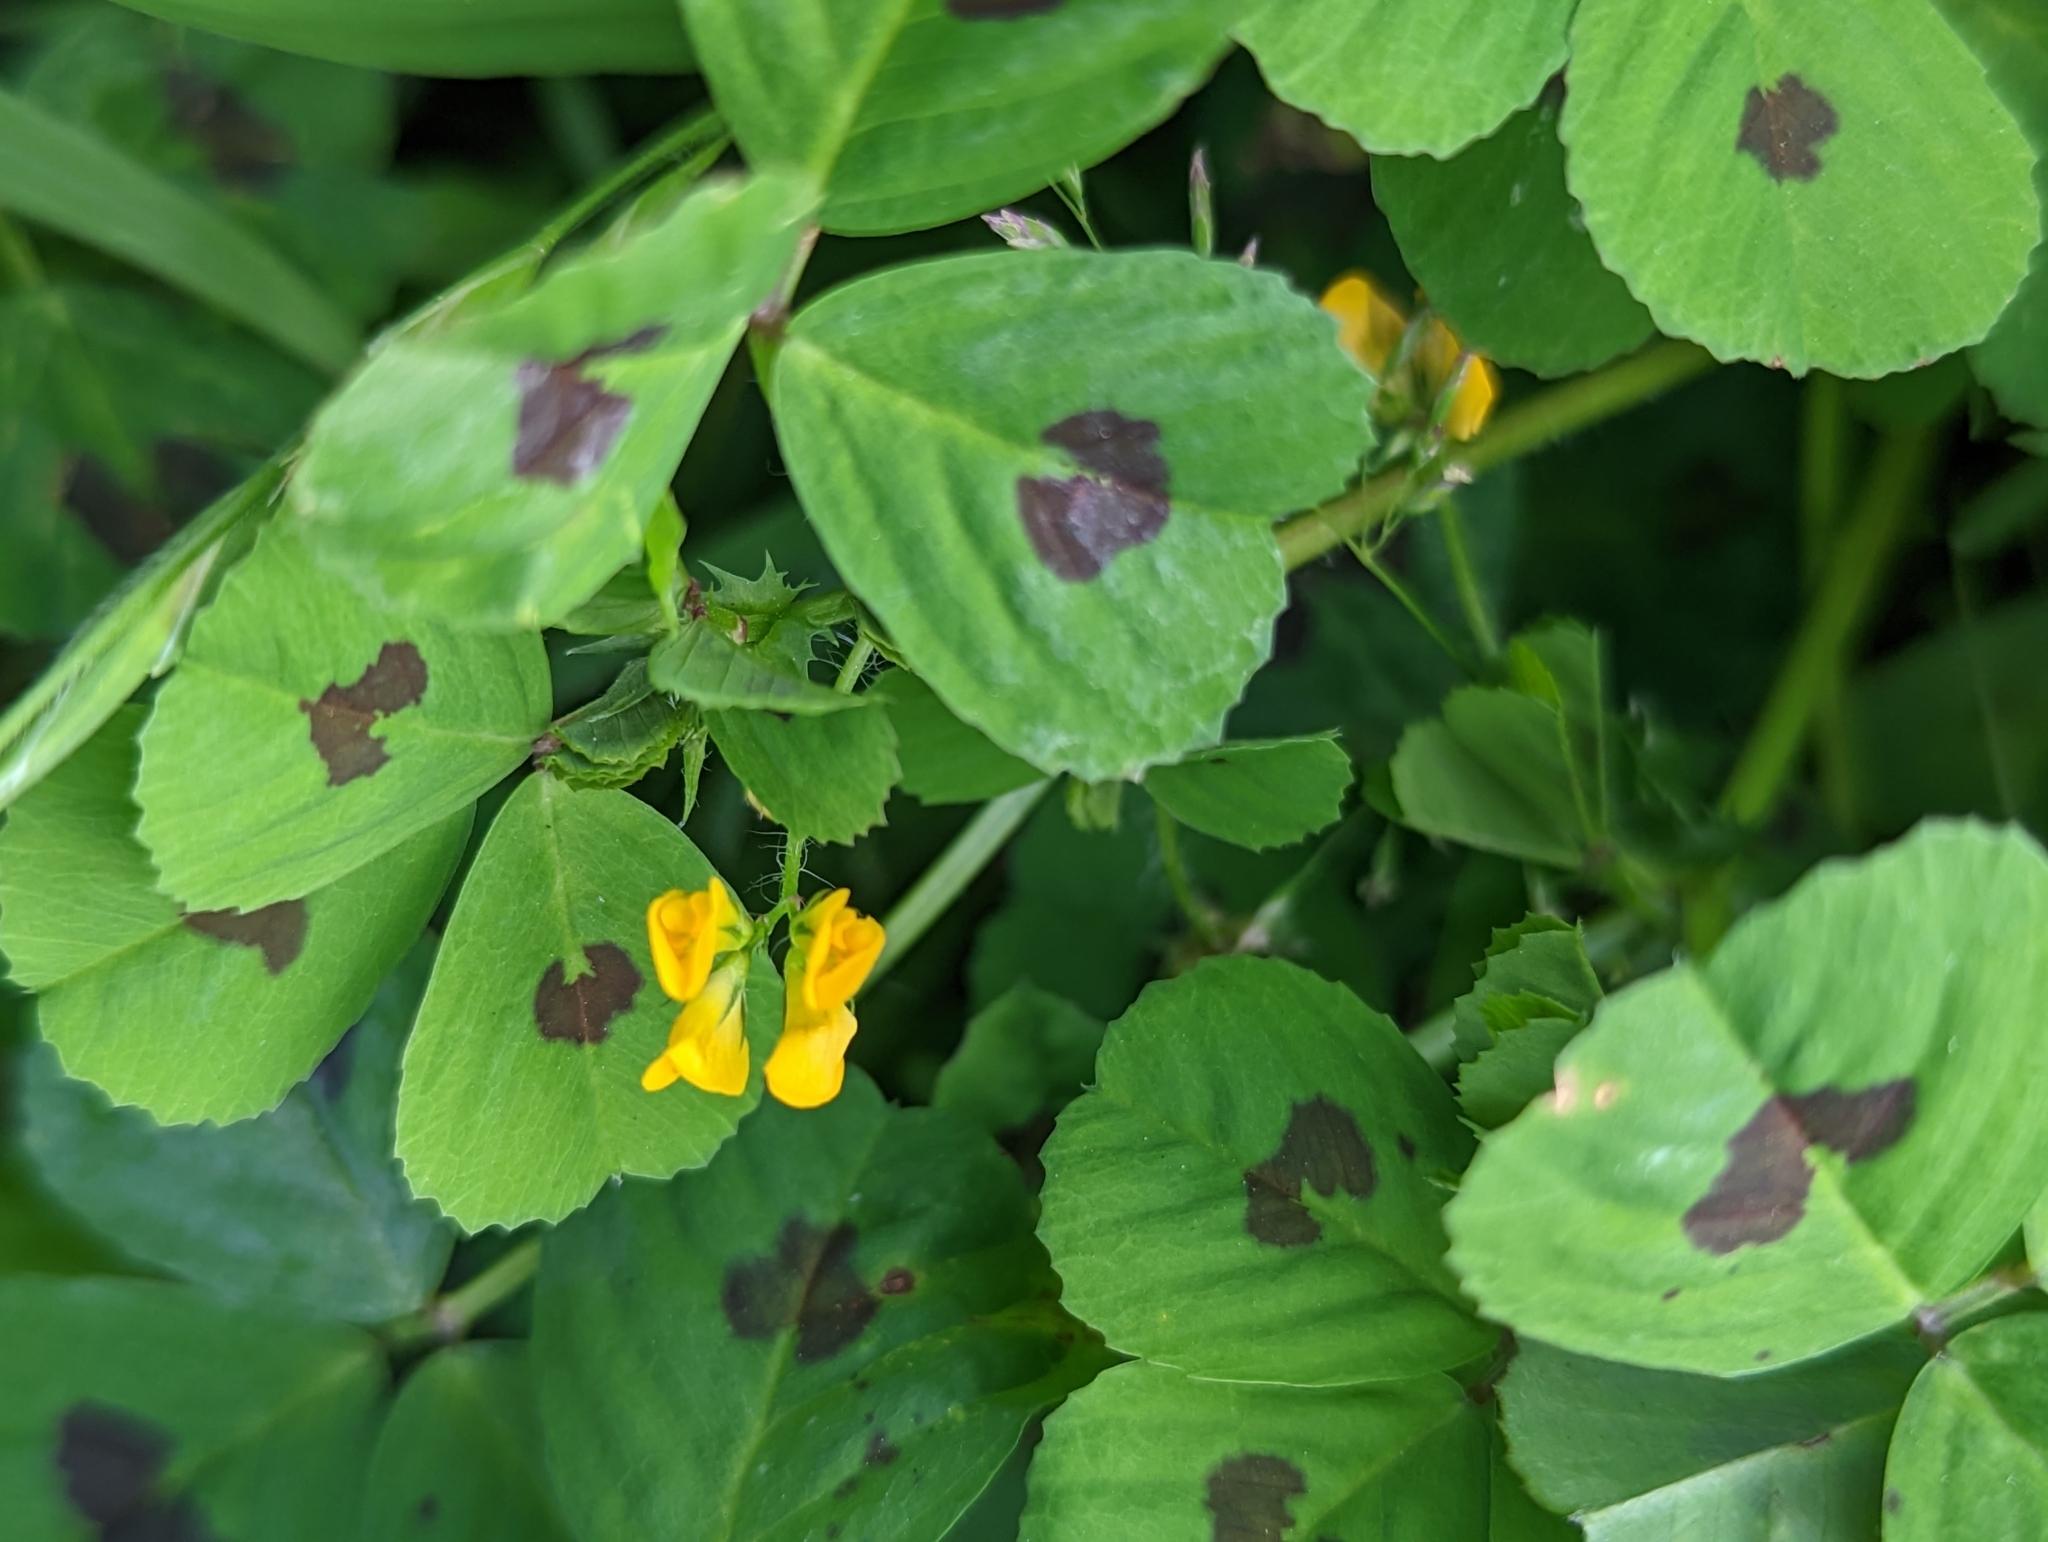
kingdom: Plantae
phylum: Tracheophyta
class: Magnoliopsida
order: Fabales
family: Fabaceae
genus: Medicago
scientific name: Medicago arabica
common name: Spotted medick
